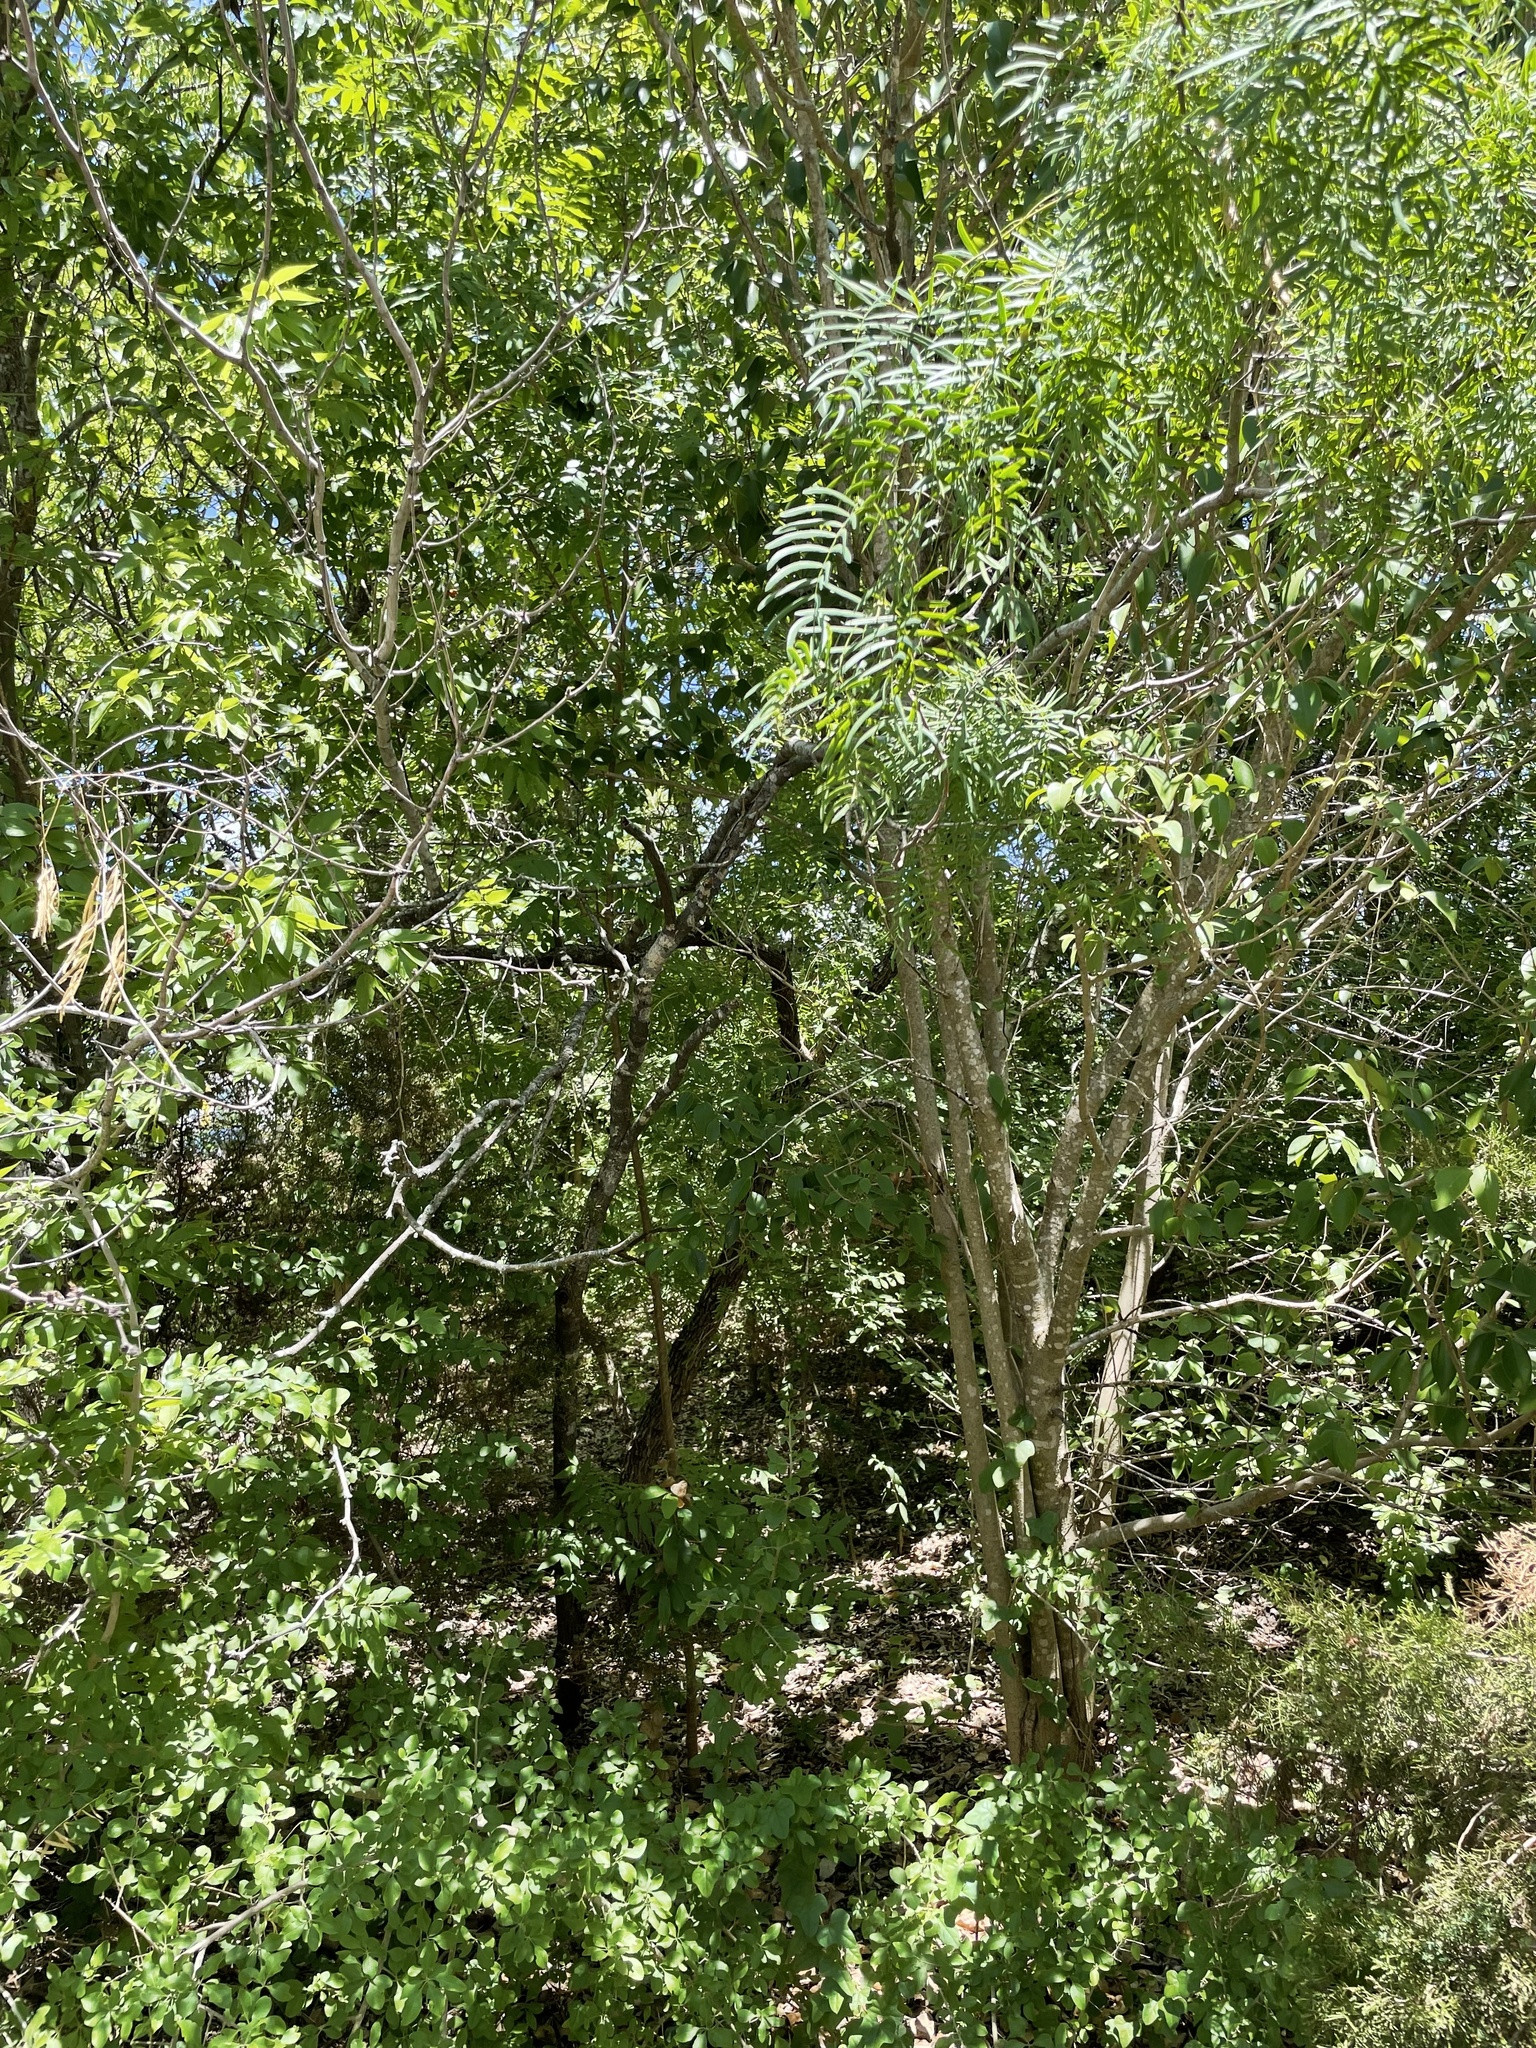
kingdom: Plantae
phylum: Tracheophyta
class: Magnoliopsida
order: Fabales
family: Fabaceae
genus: Prosopis
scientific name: Prosopis glandulosa
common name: Honey mesquite
